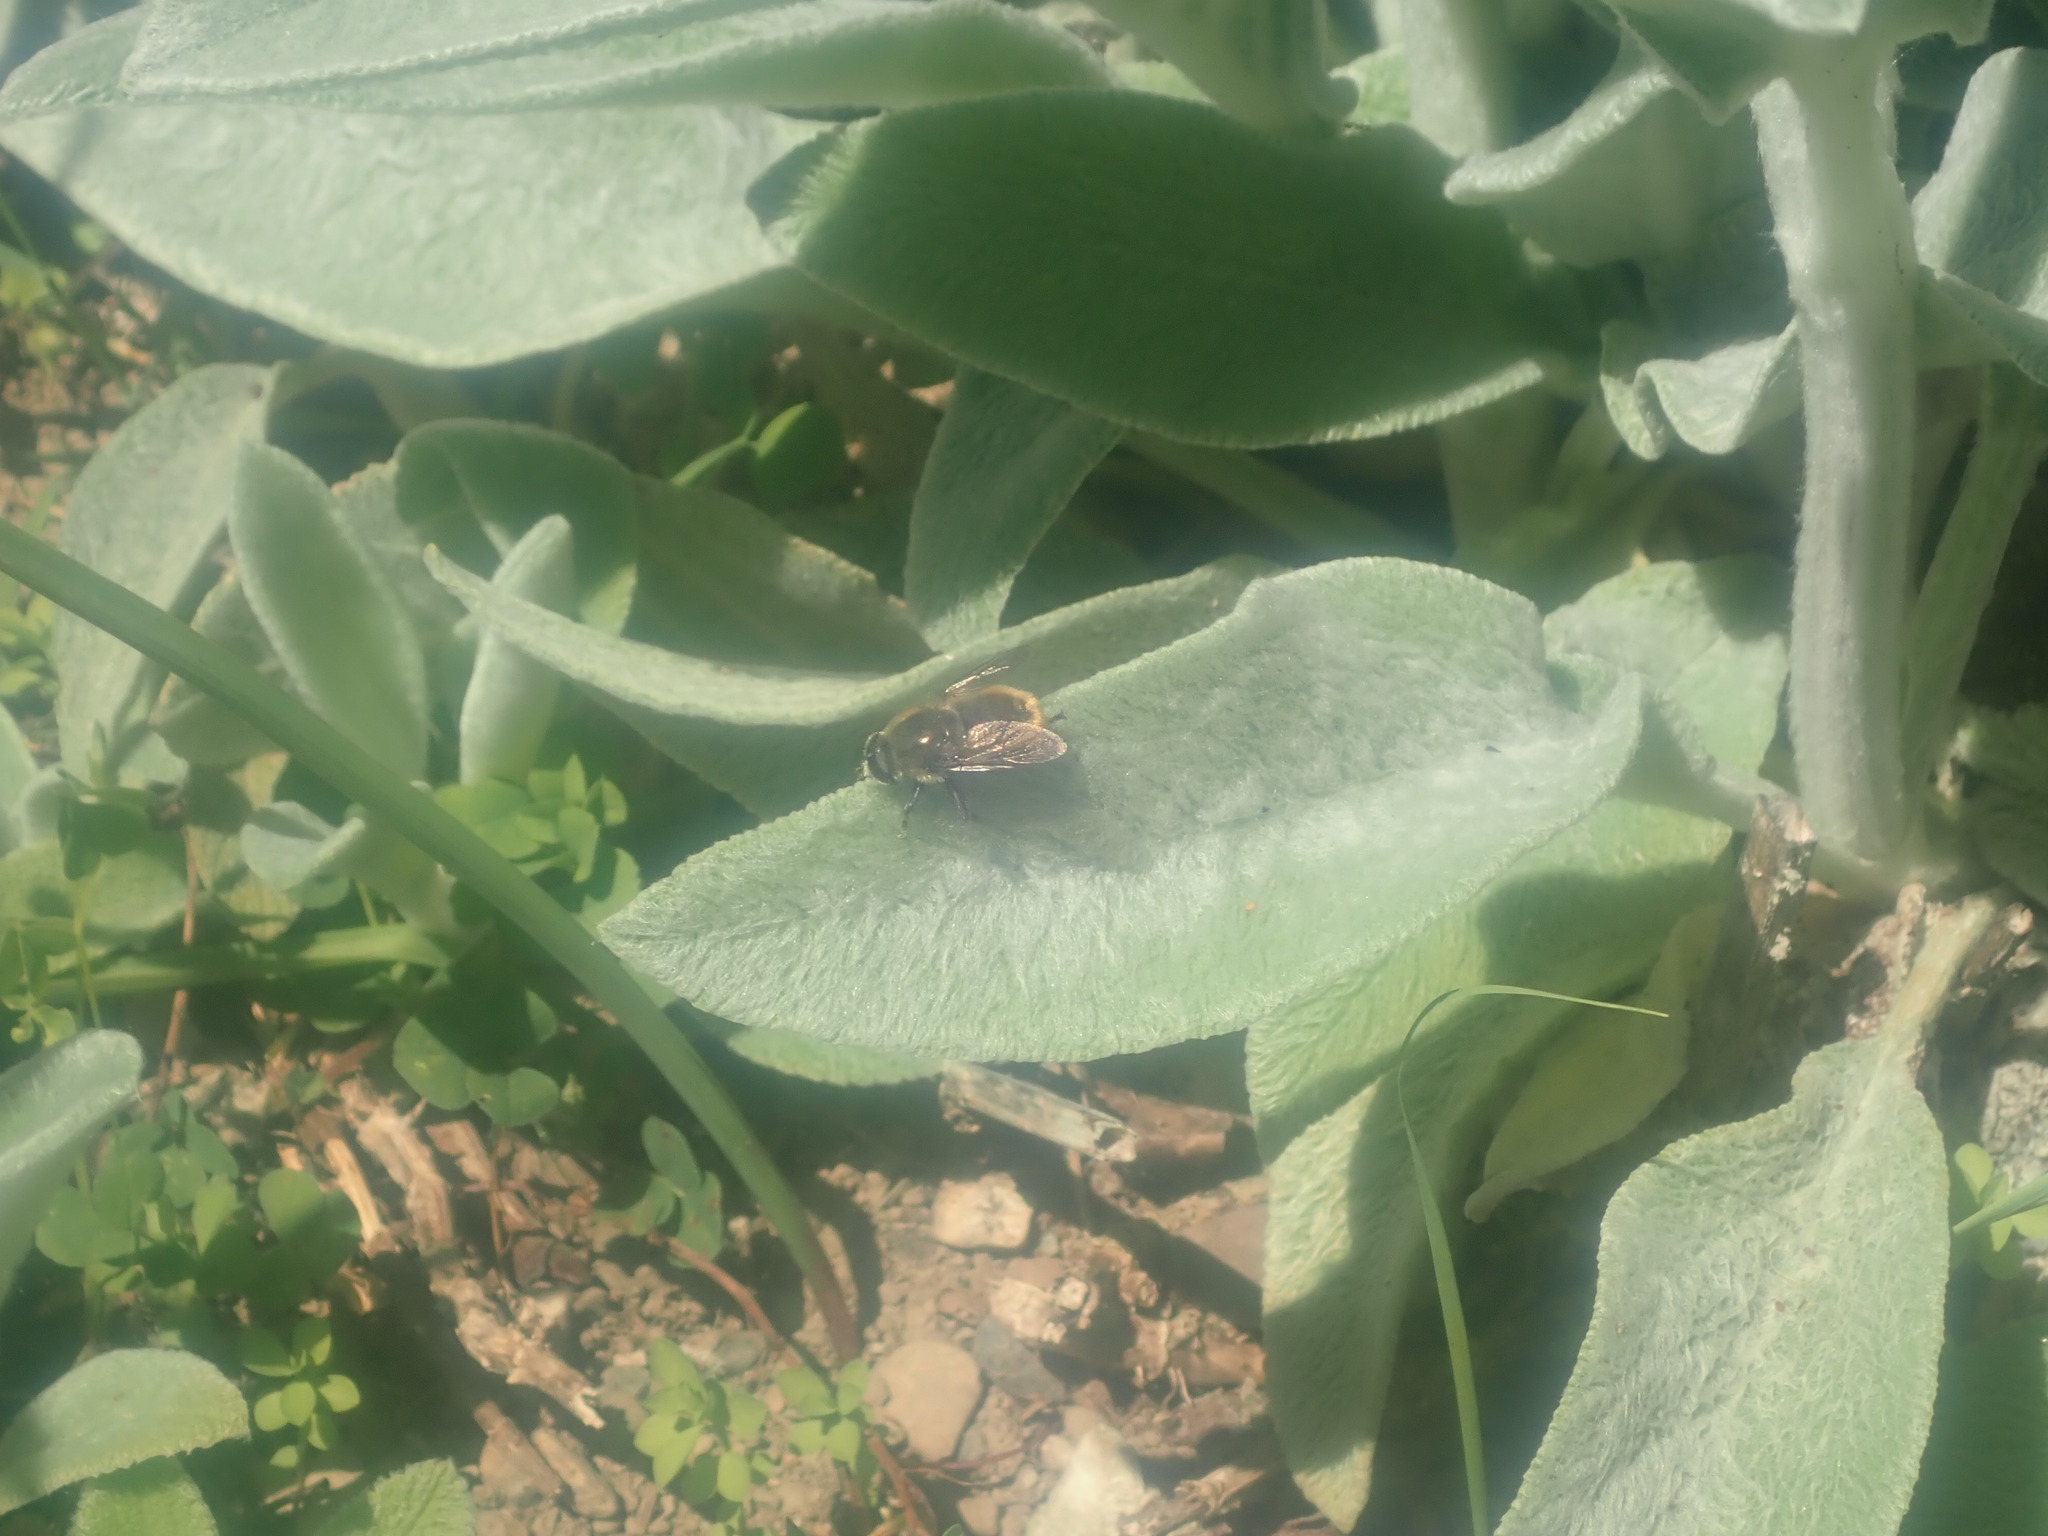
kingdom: Animalia
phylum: Arthropoda
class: Insecta
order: Diptera
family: Syrphidae
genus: Merodon
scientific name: Merodon equestris
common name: Greater bulb-fly
